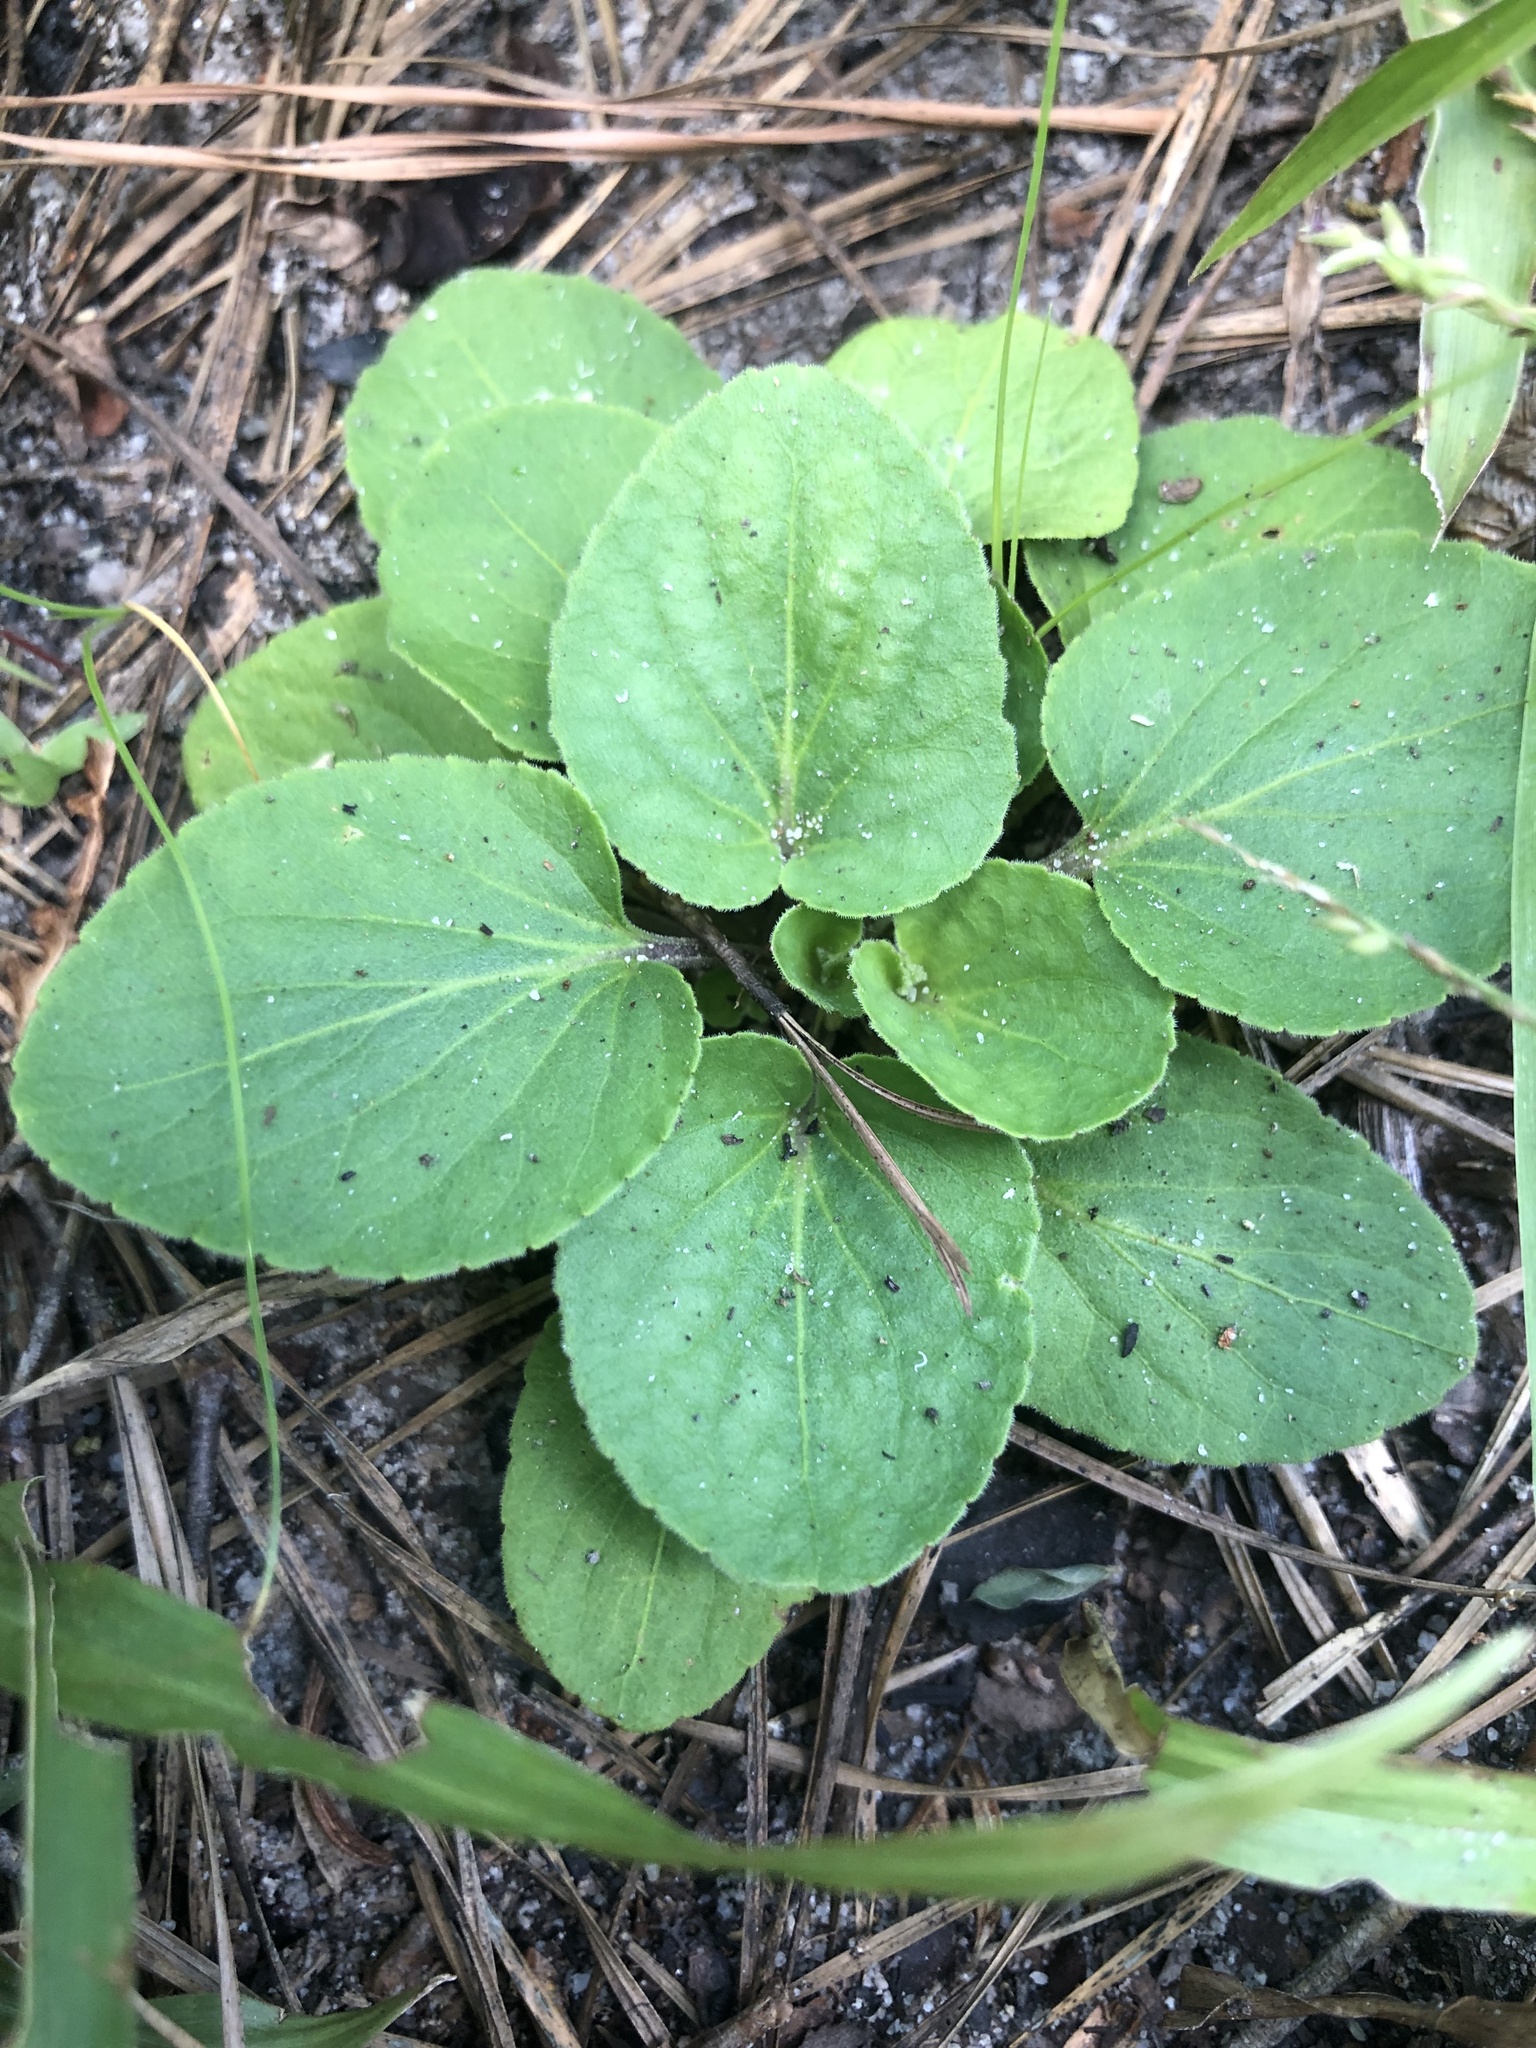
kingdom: Plantae
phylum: Tracheophyta
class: Magnoliopsida
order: Malpighiales
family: Violaceae
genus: Viola
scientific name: Viola villosa
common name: Carolina violet
